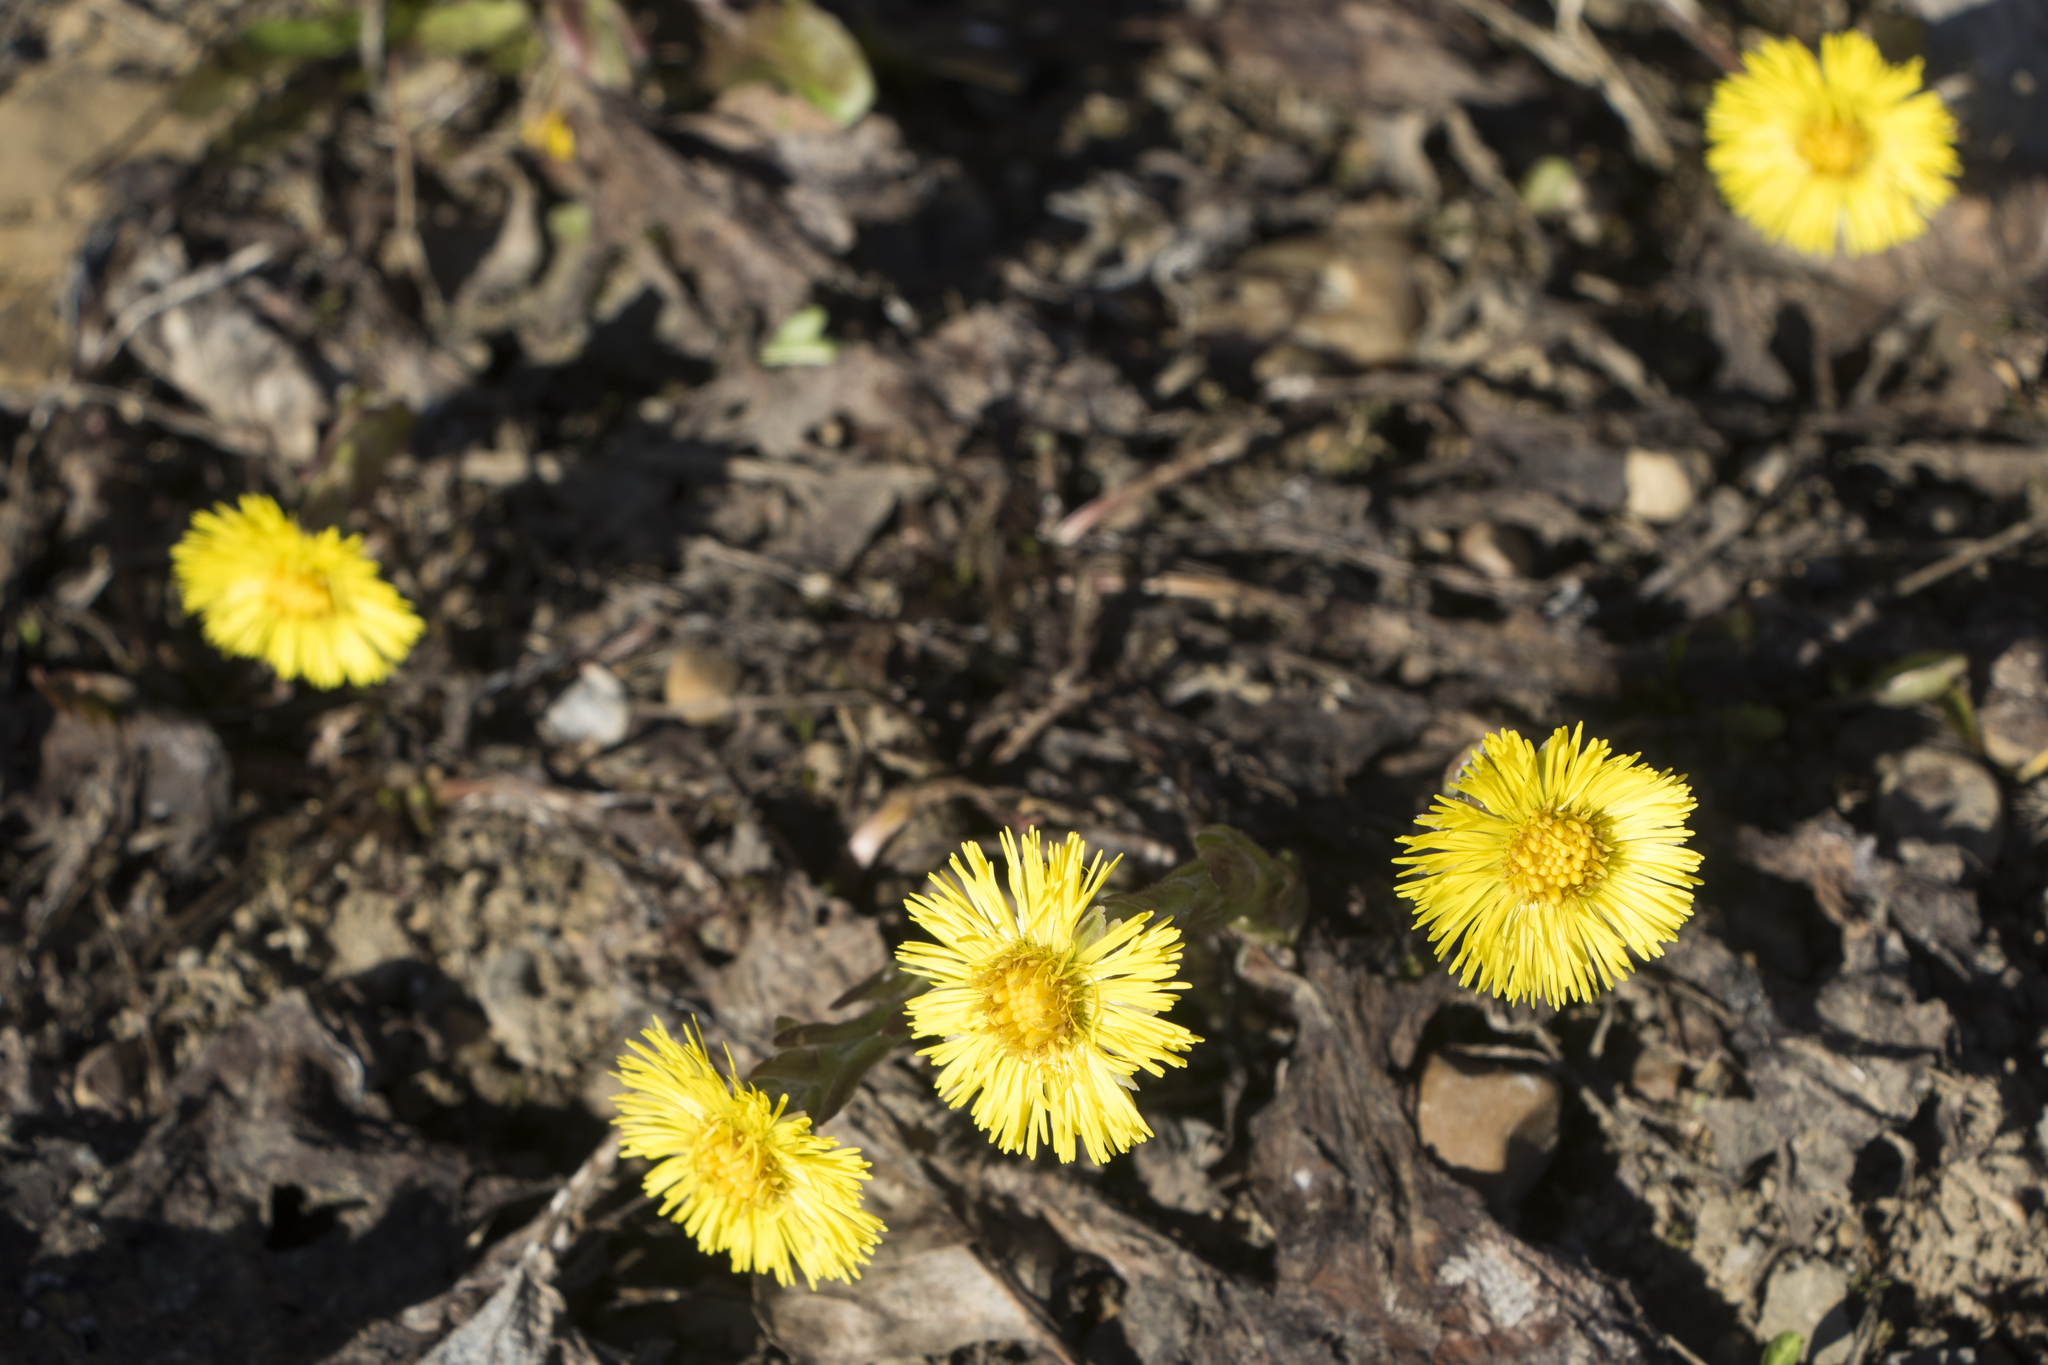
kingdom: Plantae
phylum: Tracheophyta
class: Magnoliopsida
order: Asterales
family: Asteraceae
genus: Tussilago
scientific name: Tussilago farfara
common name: Coltsfoot
